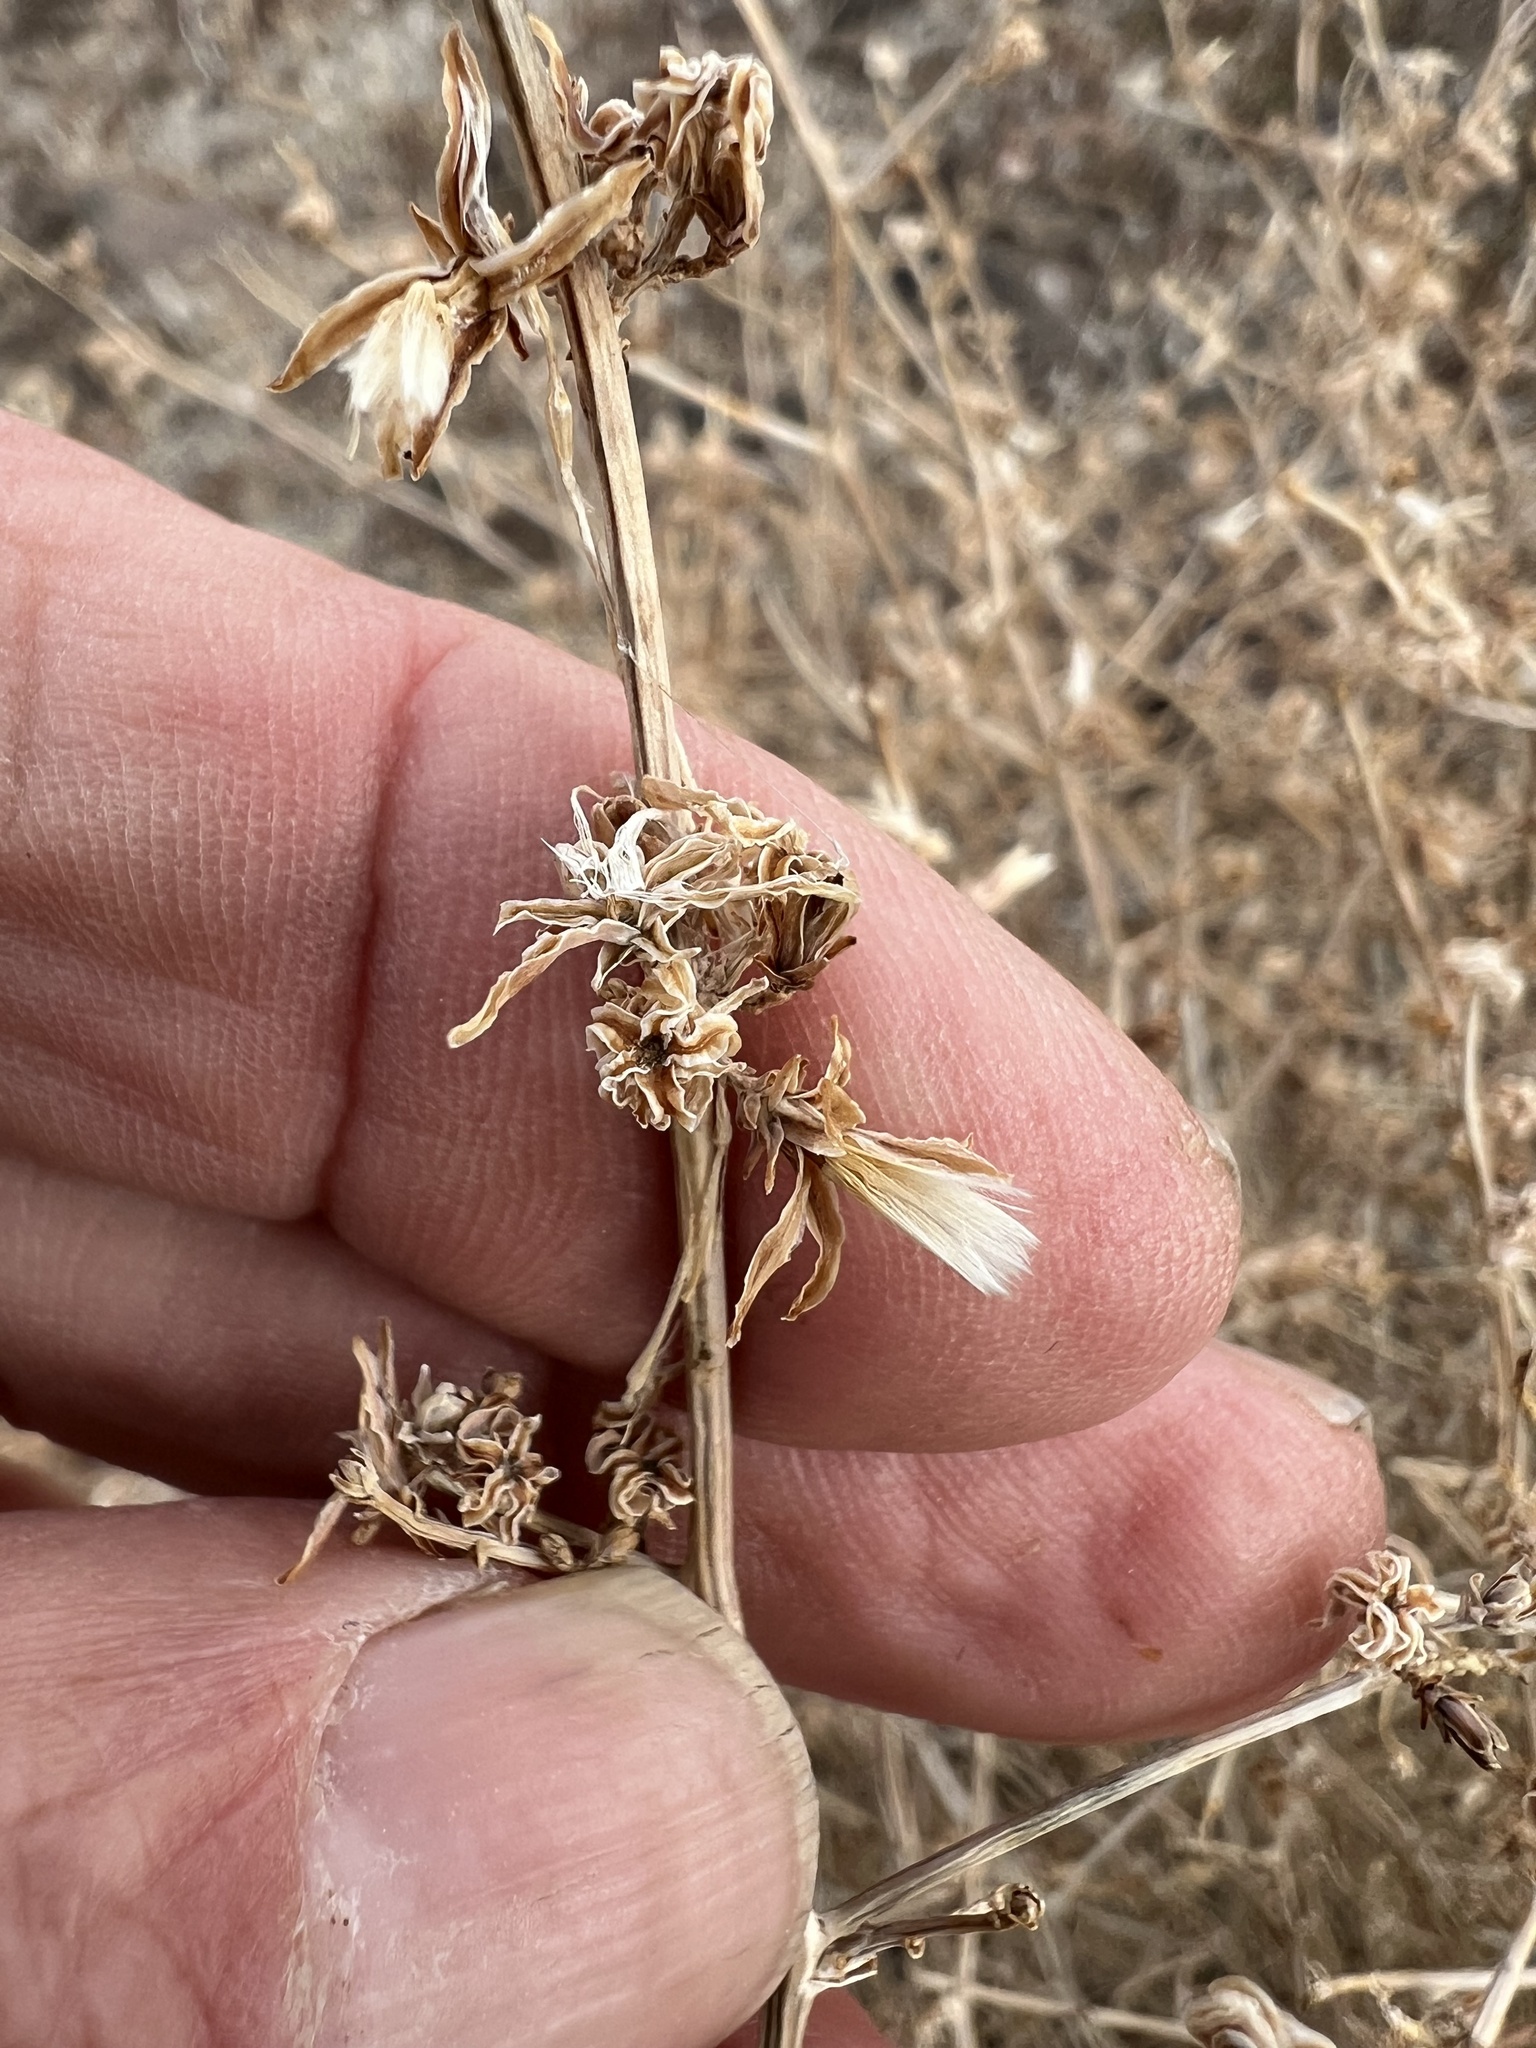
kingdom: Plantae
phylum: Tracheophyta
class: Magnoliopsida
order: Asterales
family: Asteraceae
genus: Stephanomeria
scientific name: Stephanomeria pauciflora
